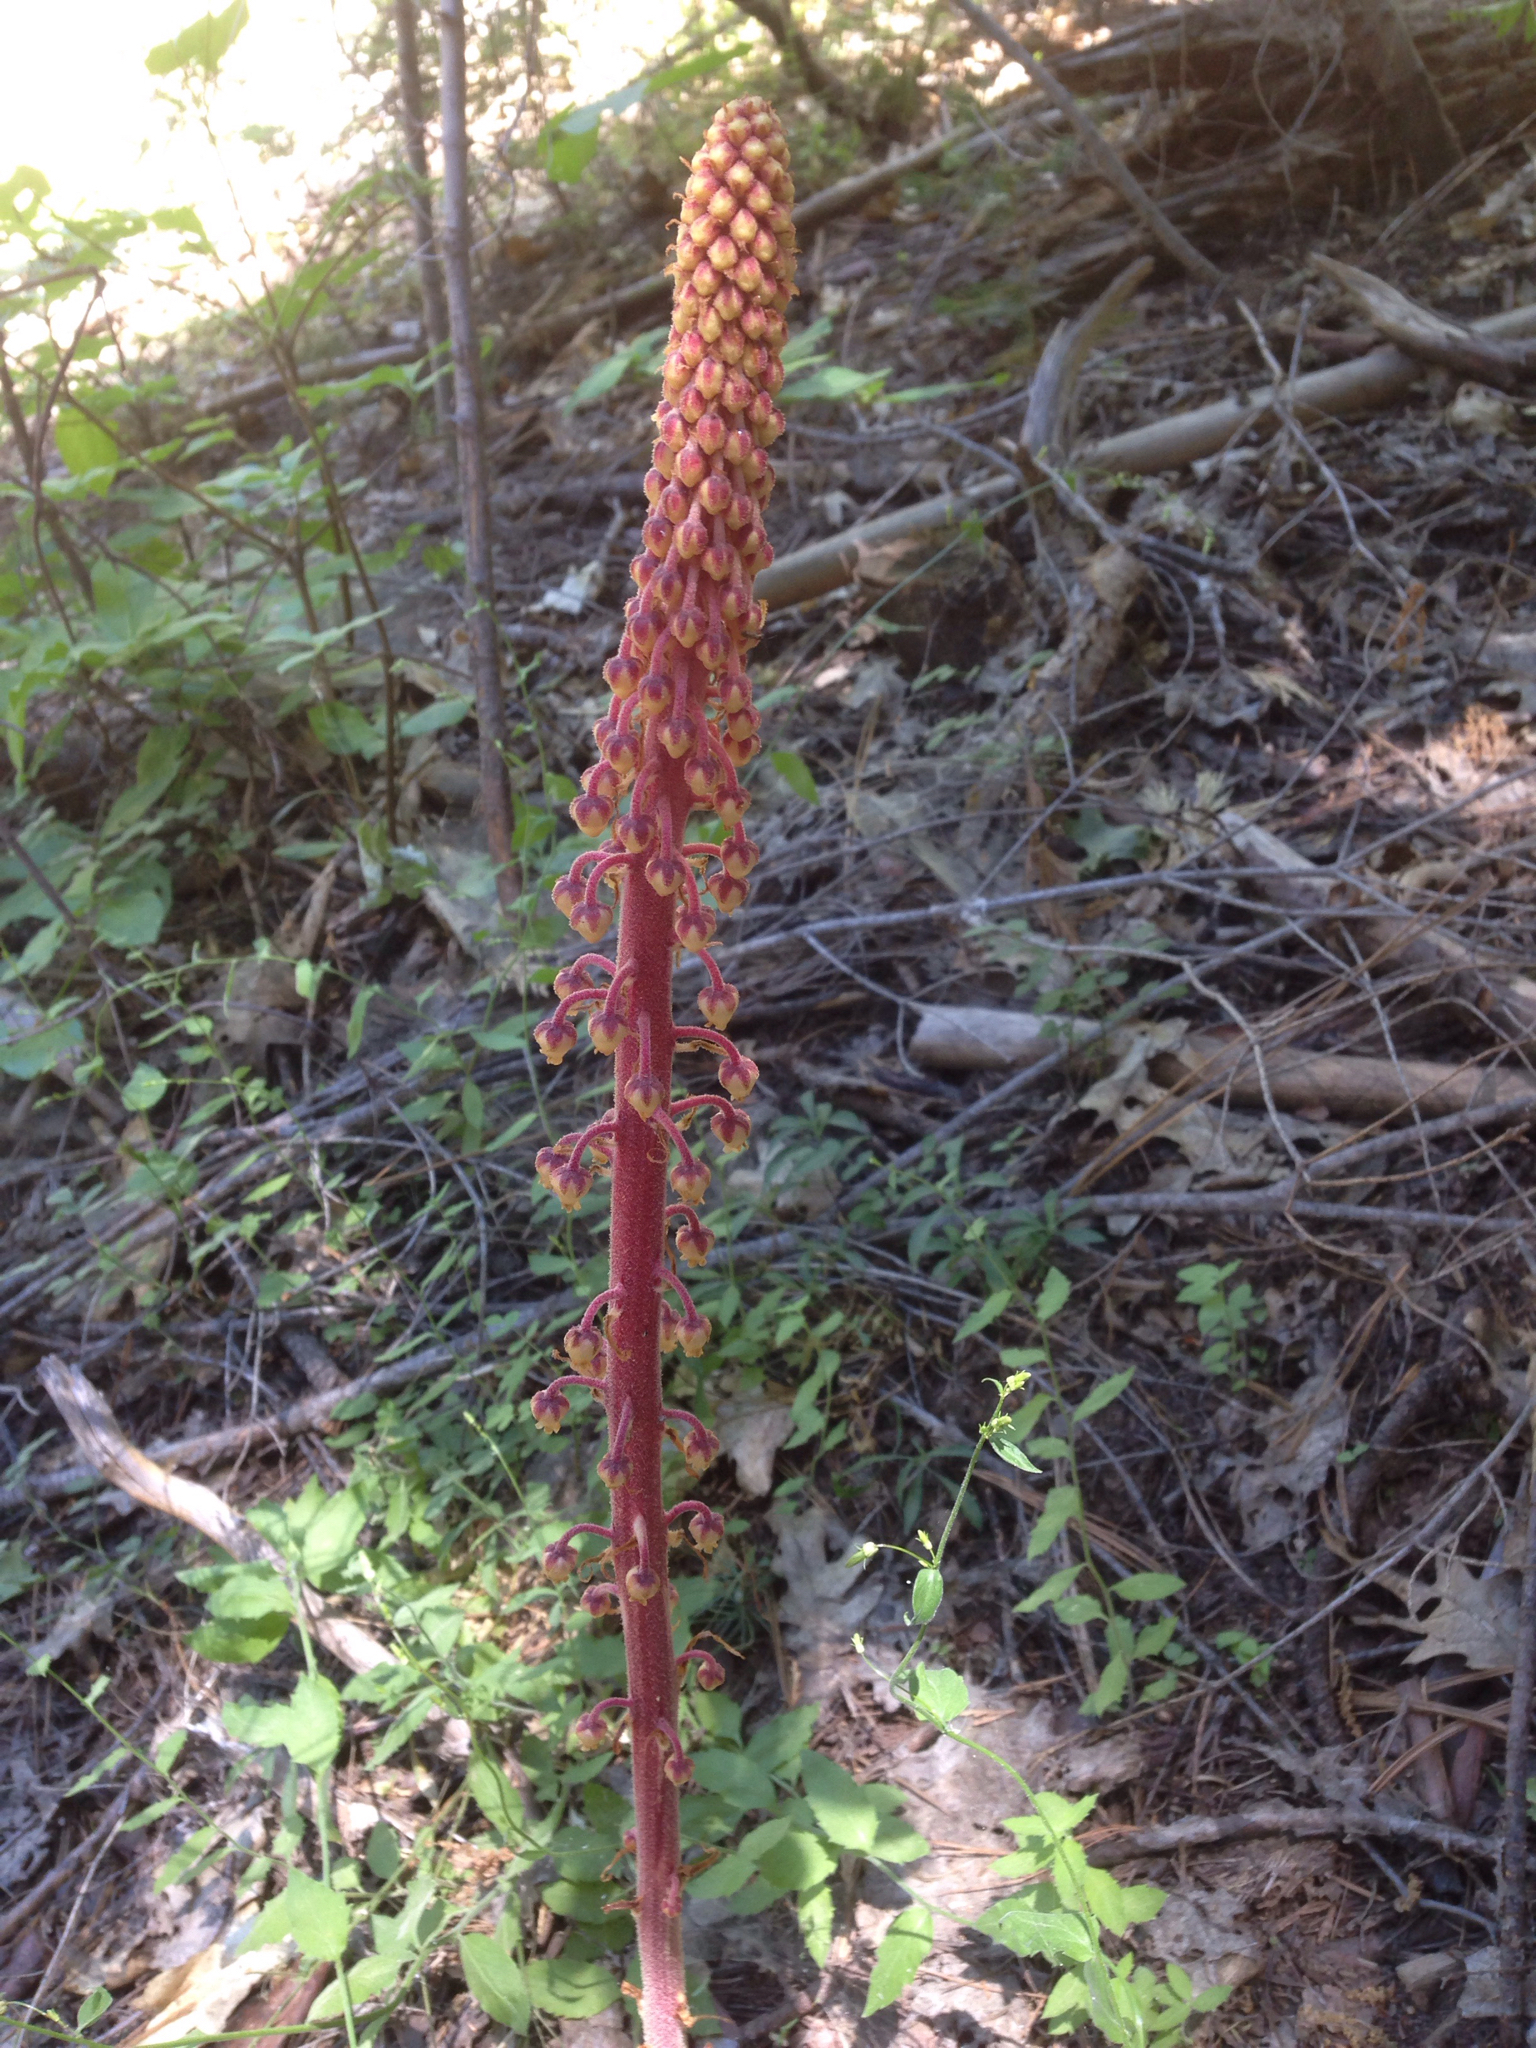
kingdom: Plantae
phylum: Tracheophyta
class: Magnoliopsida
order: Ericales
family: Ericaceae
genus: Pterospora
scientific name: Pterospora andromedea
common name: Giant bird's-nest
